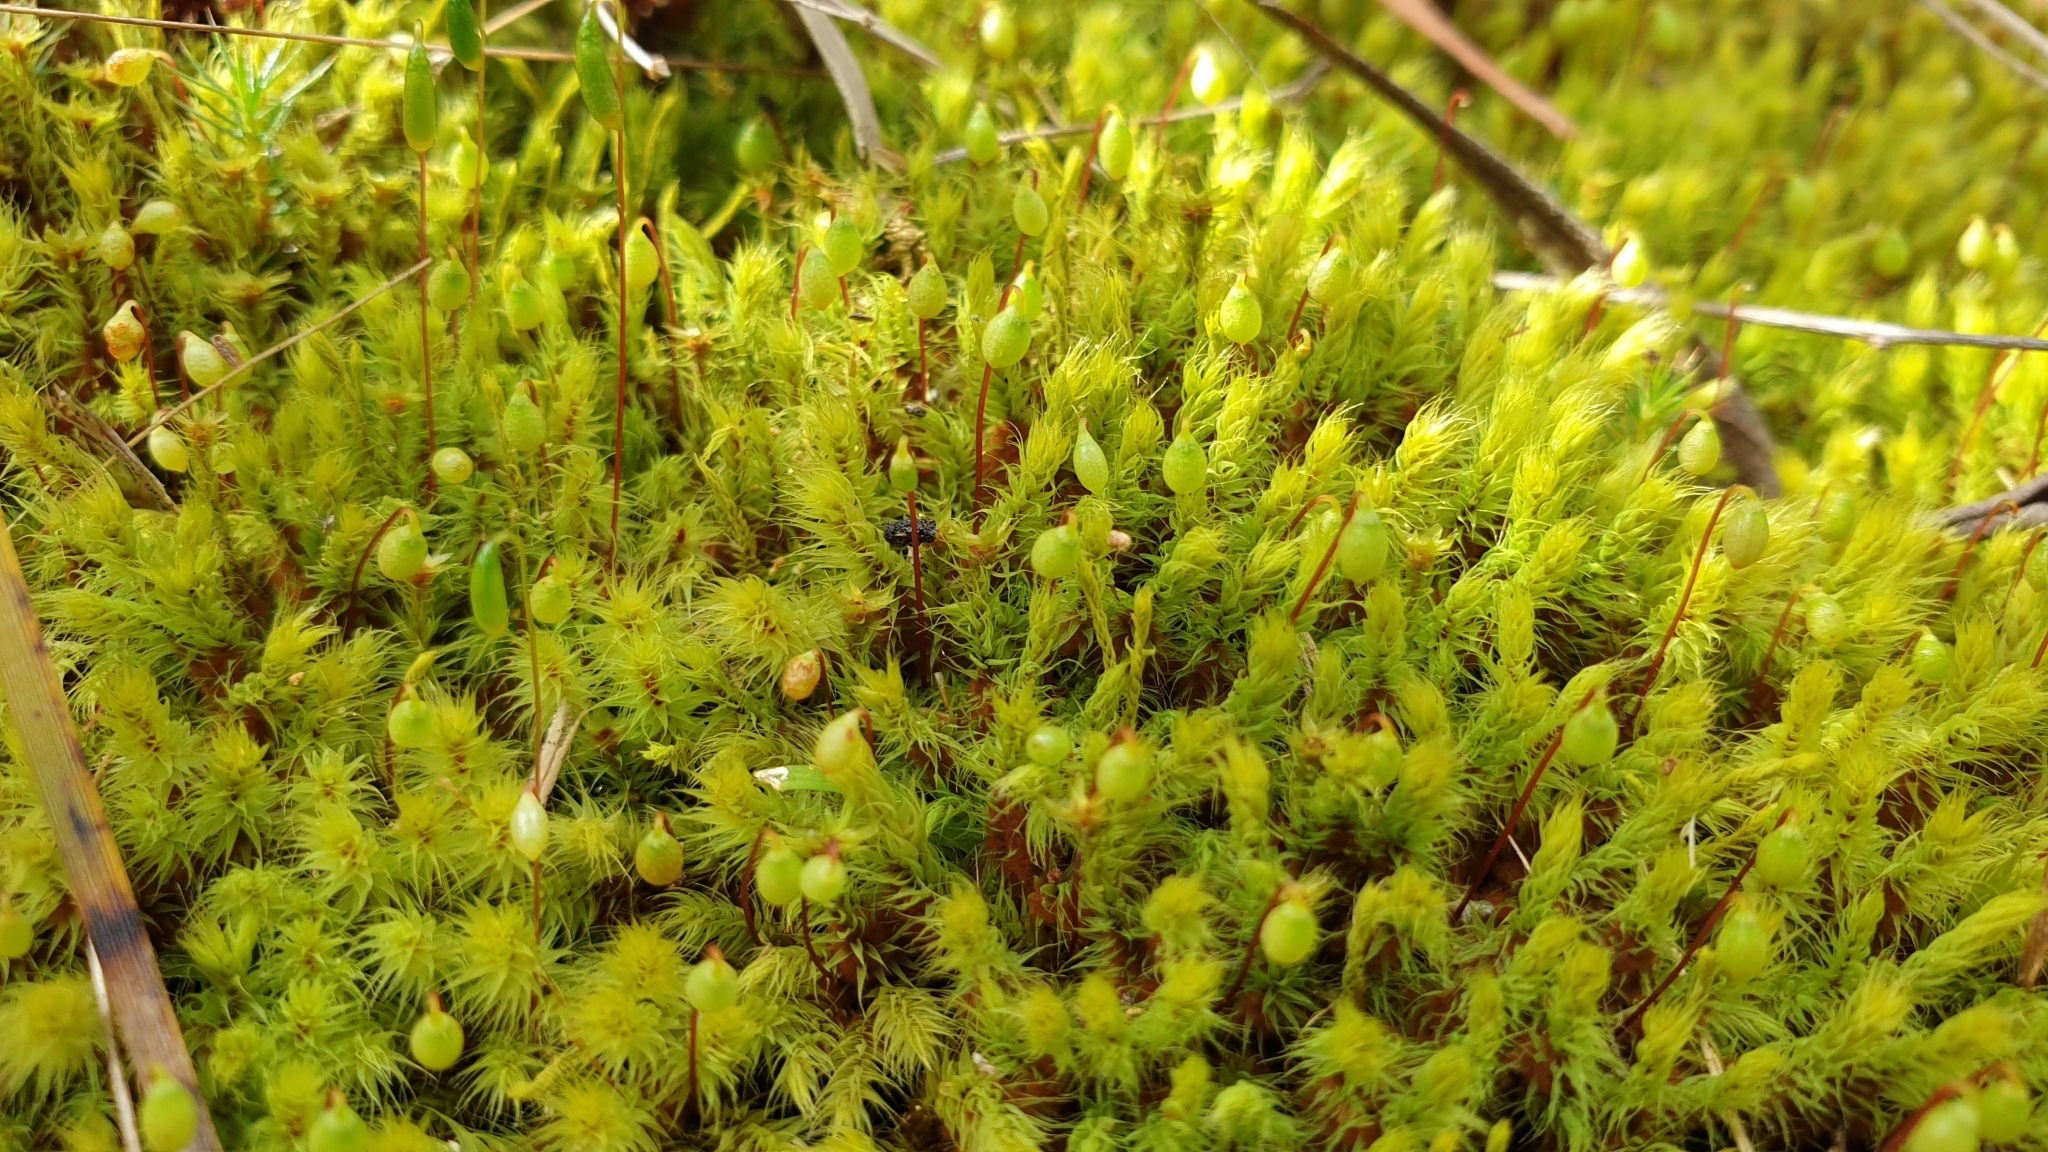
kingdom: Plantae
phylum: Bryophyta
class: Bryopsida
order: Bartramiales
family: Bartramiaceae
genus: Breutelia
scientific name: Breutelia affinis
